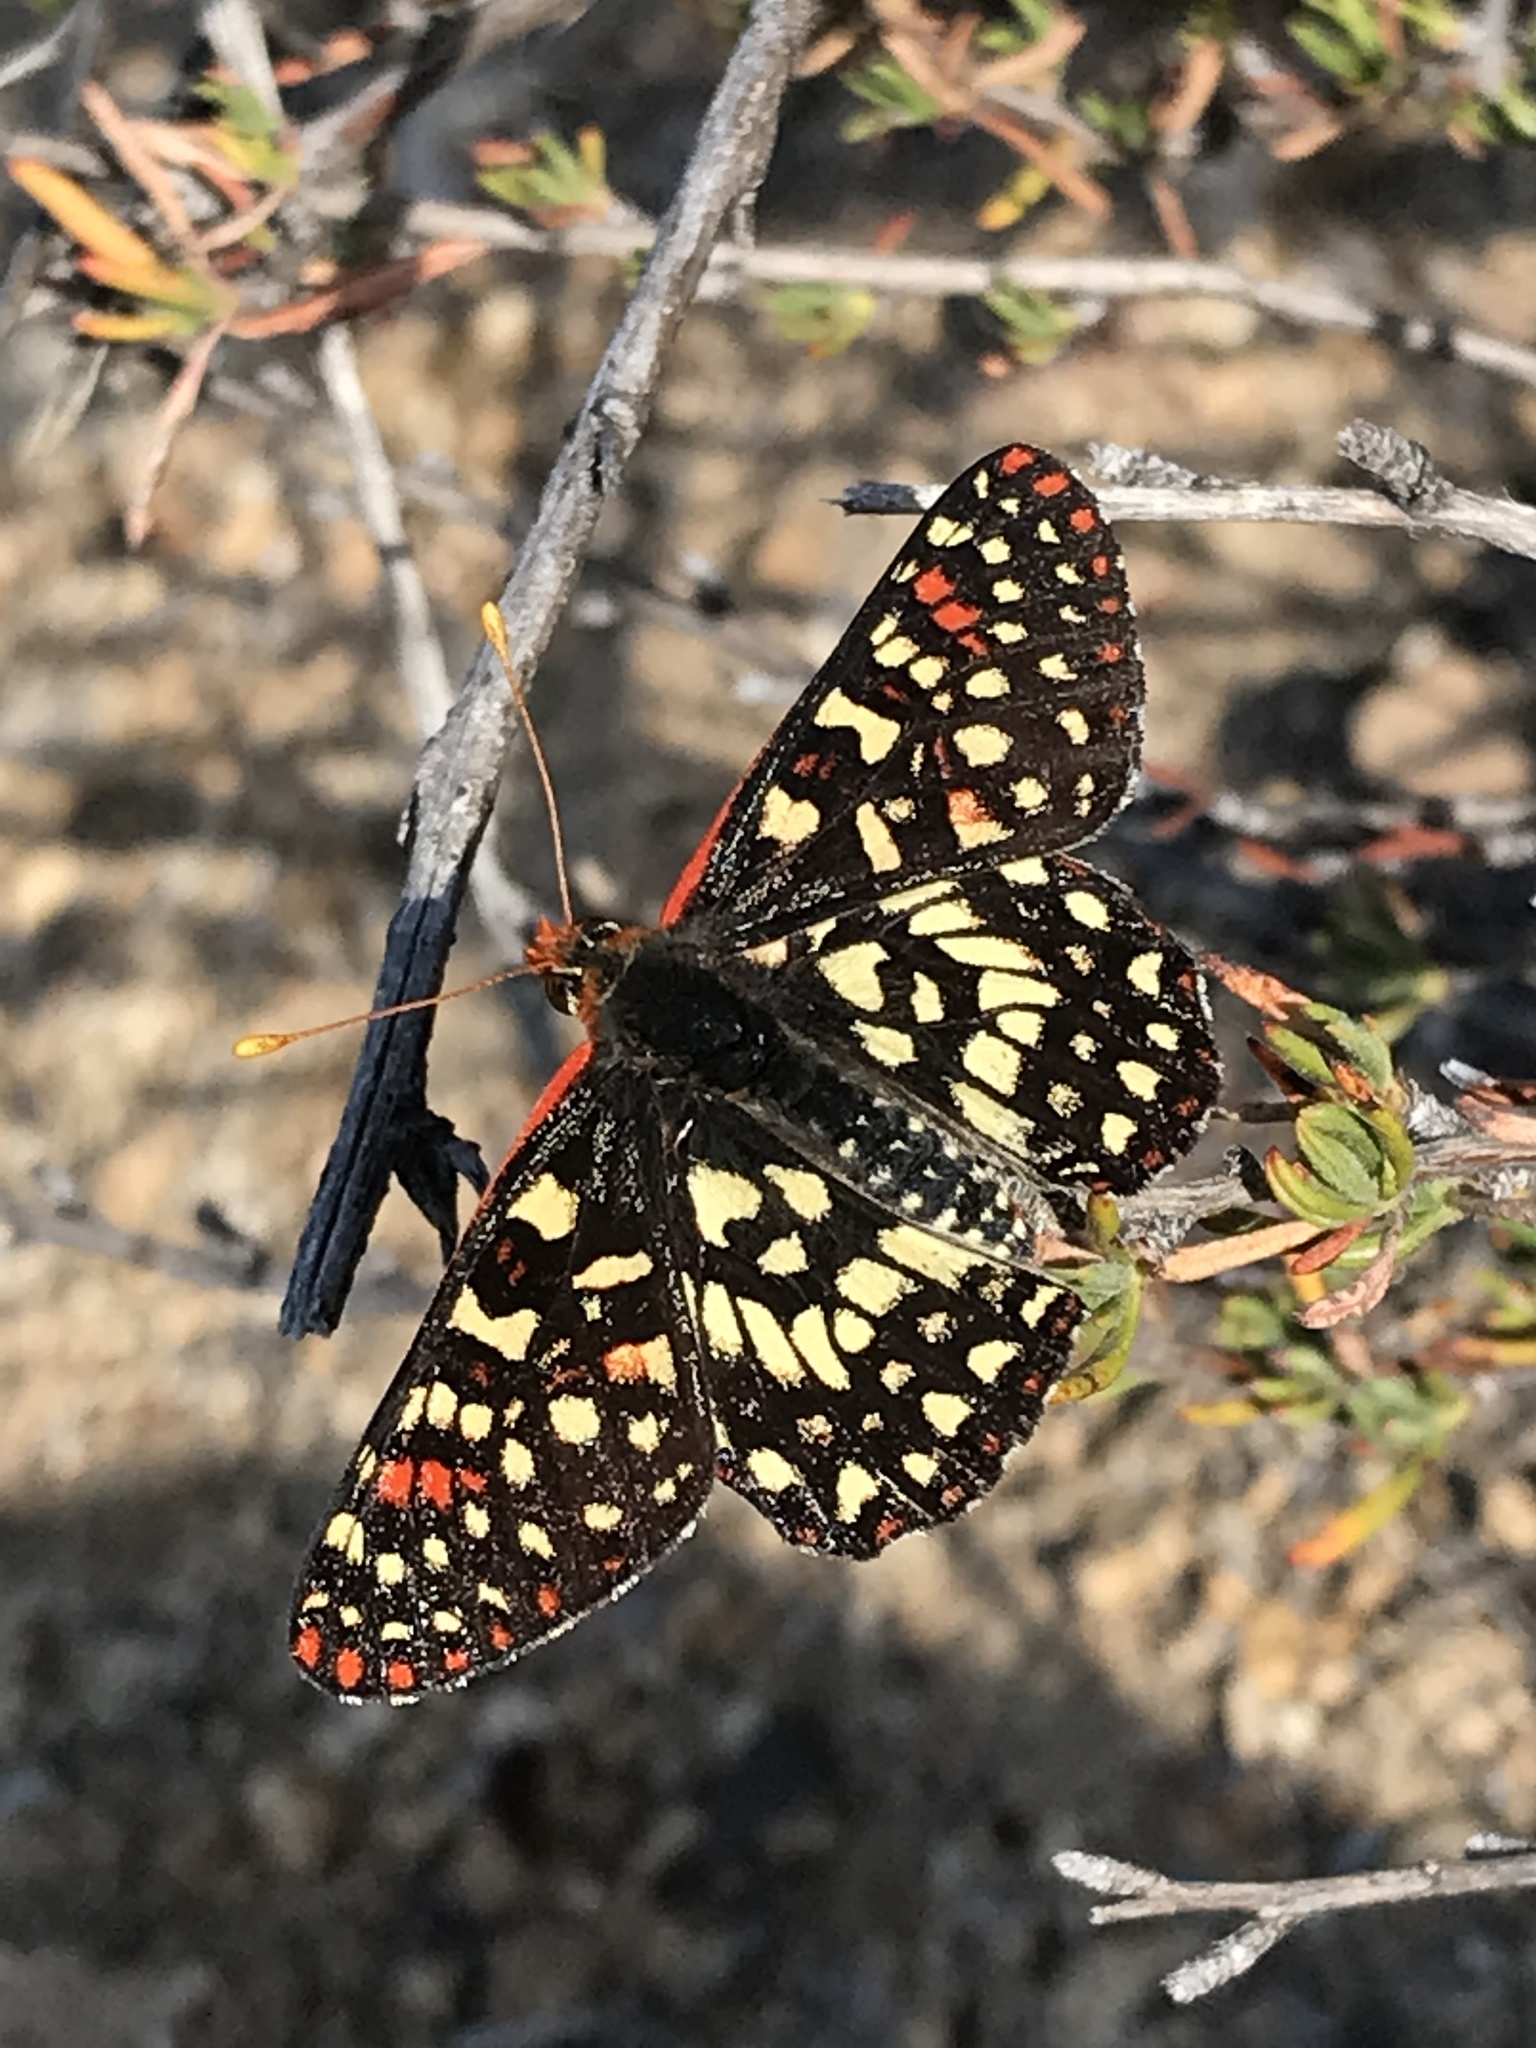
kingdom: Animalia
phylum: Arthropoda
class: Insecta
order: Lepidoptera
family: Nymphalidae
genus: Occidryas
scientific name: Occidryas chalcedona
